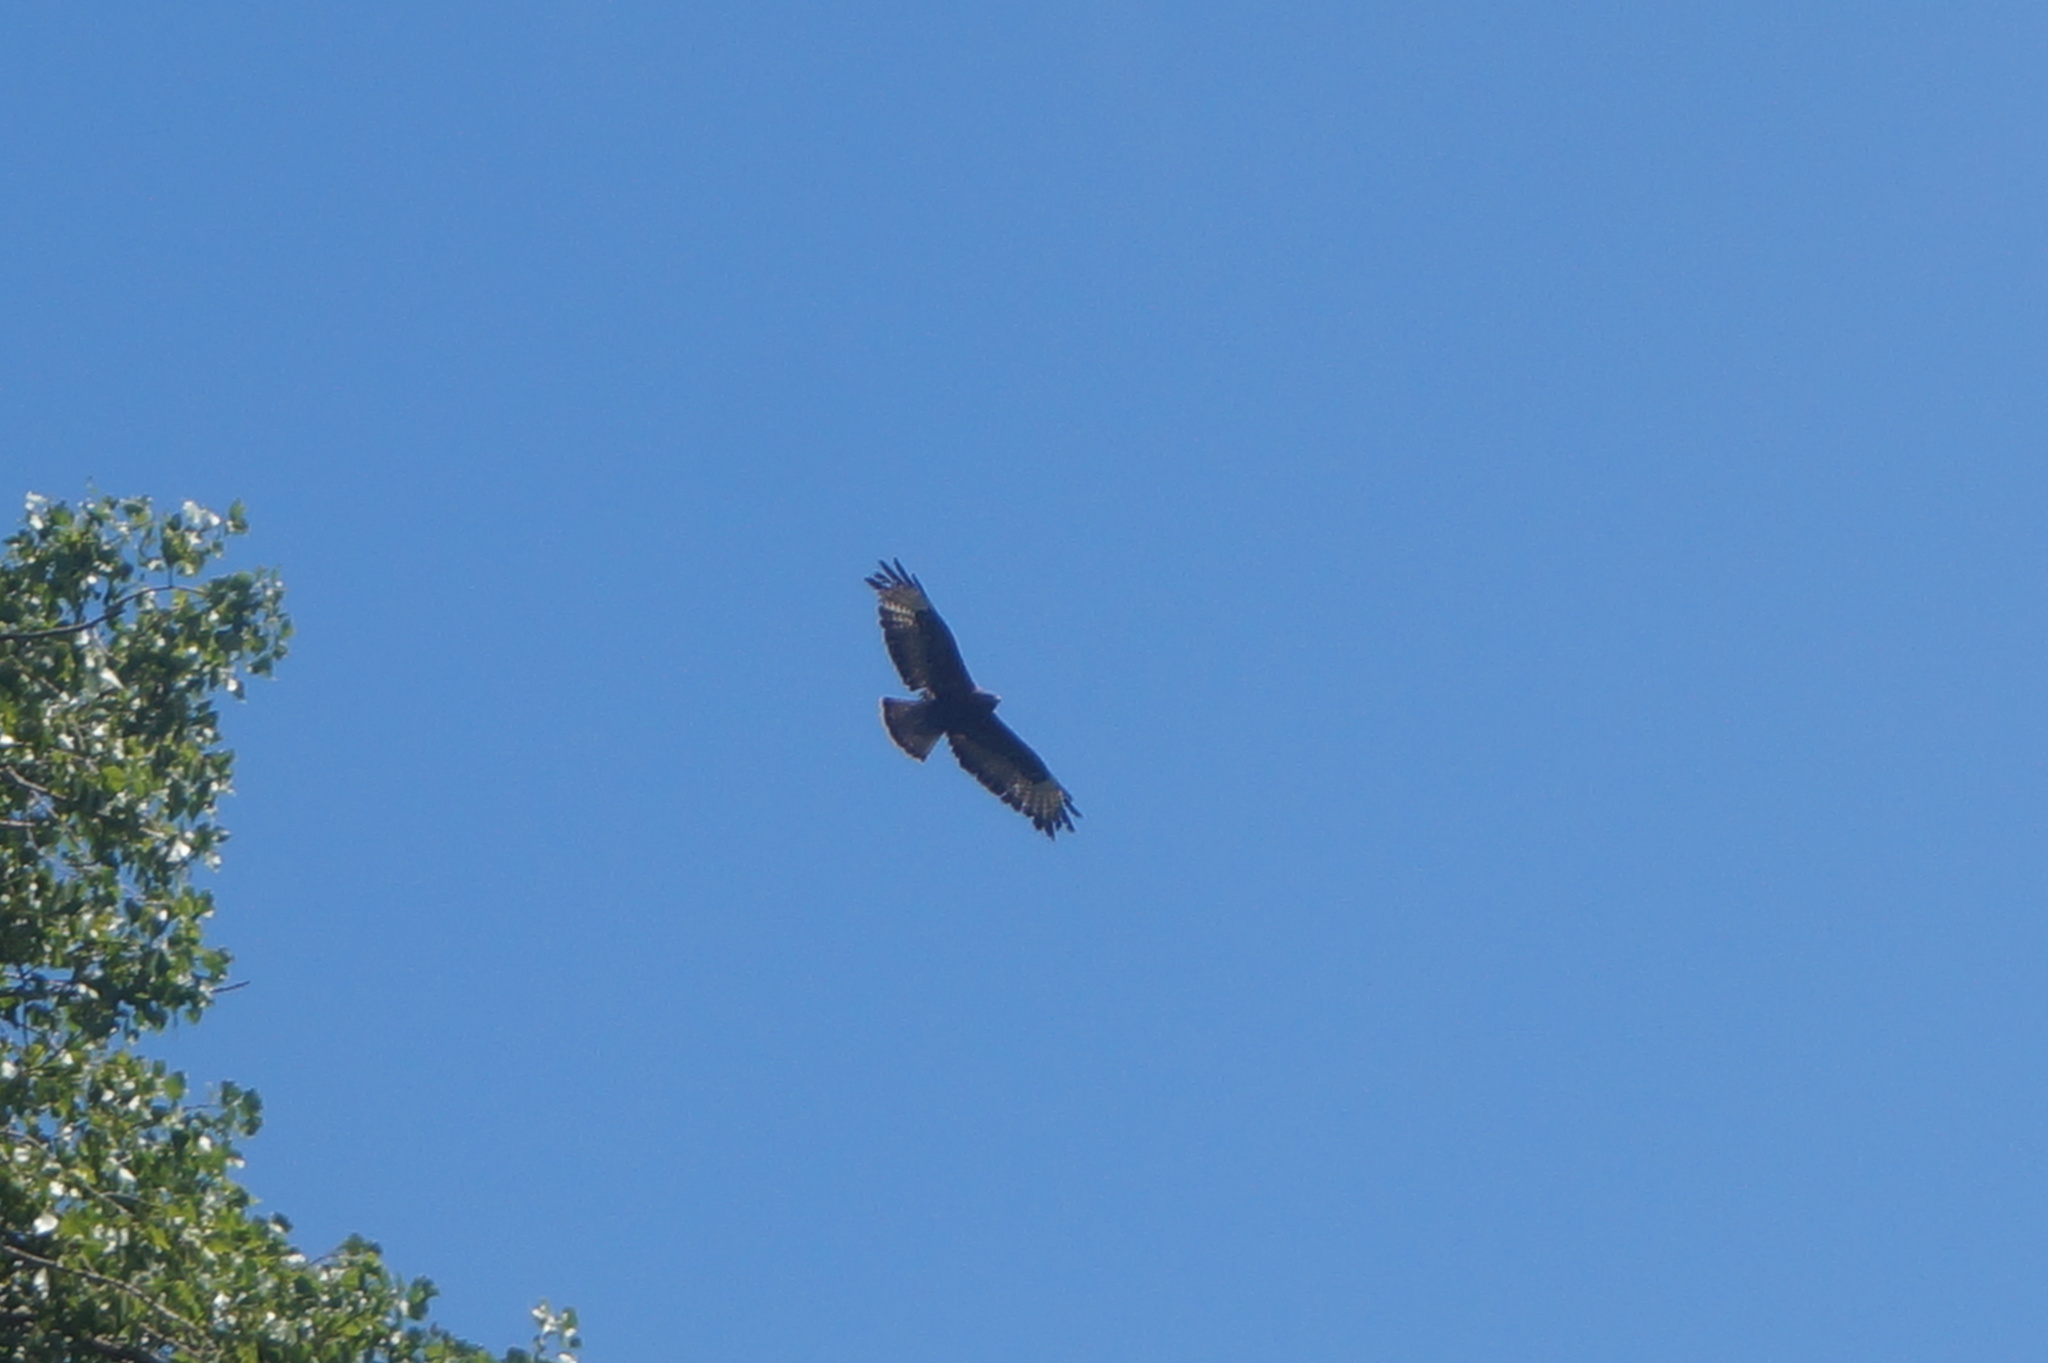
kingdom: Animalia
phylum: Chordata
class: Aves
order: Accipitriformes
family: Accipitridae
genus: Buteo
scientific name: Buteo buteo
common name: Common buzzard
